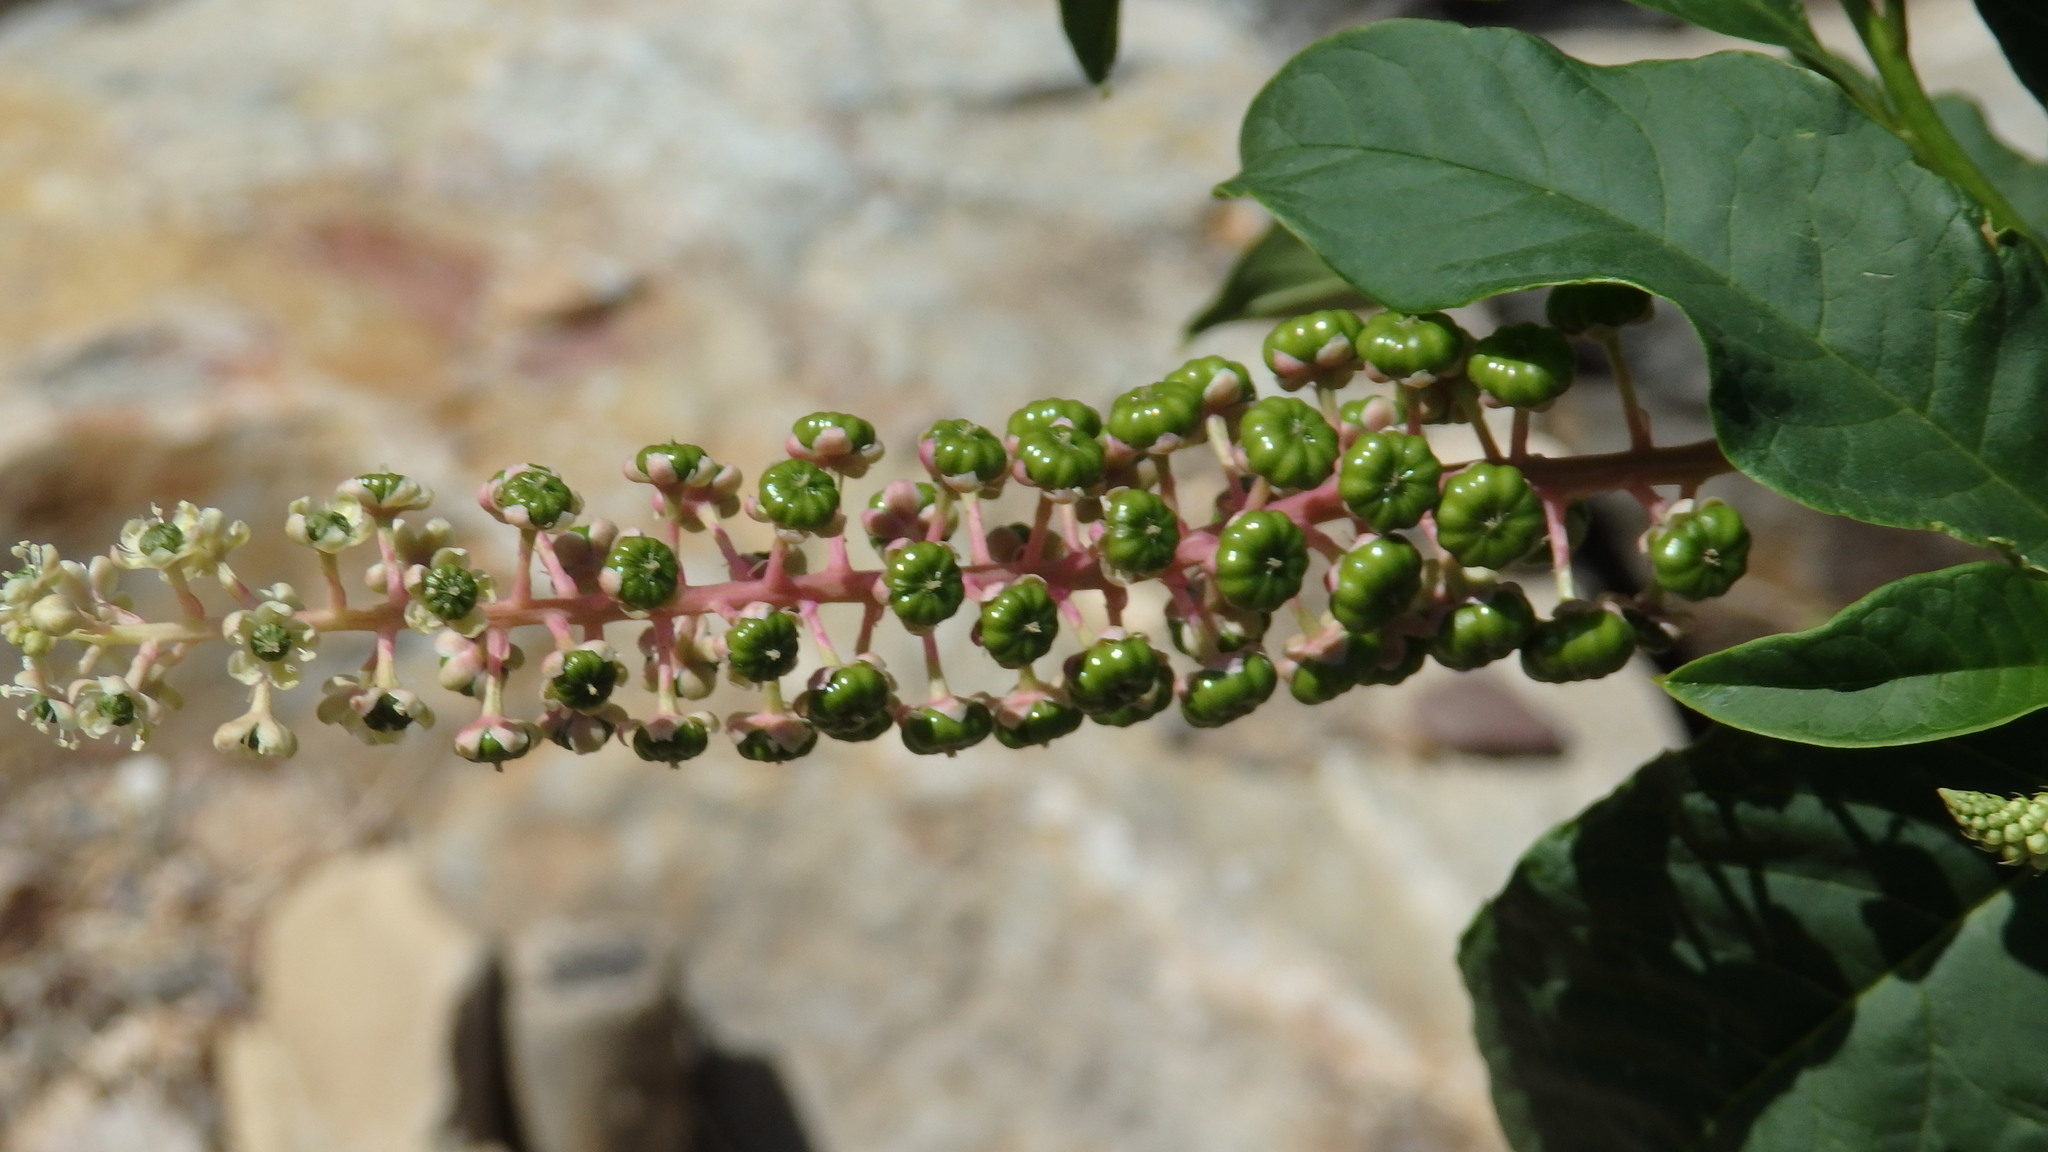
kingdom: Plantae
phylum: Tracheophyta
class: Magnoliopsida
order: Caryophyllales
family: Phytolaccaceae
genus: Phytolacca
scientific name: Phytolacca americana
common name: American pokeweed
